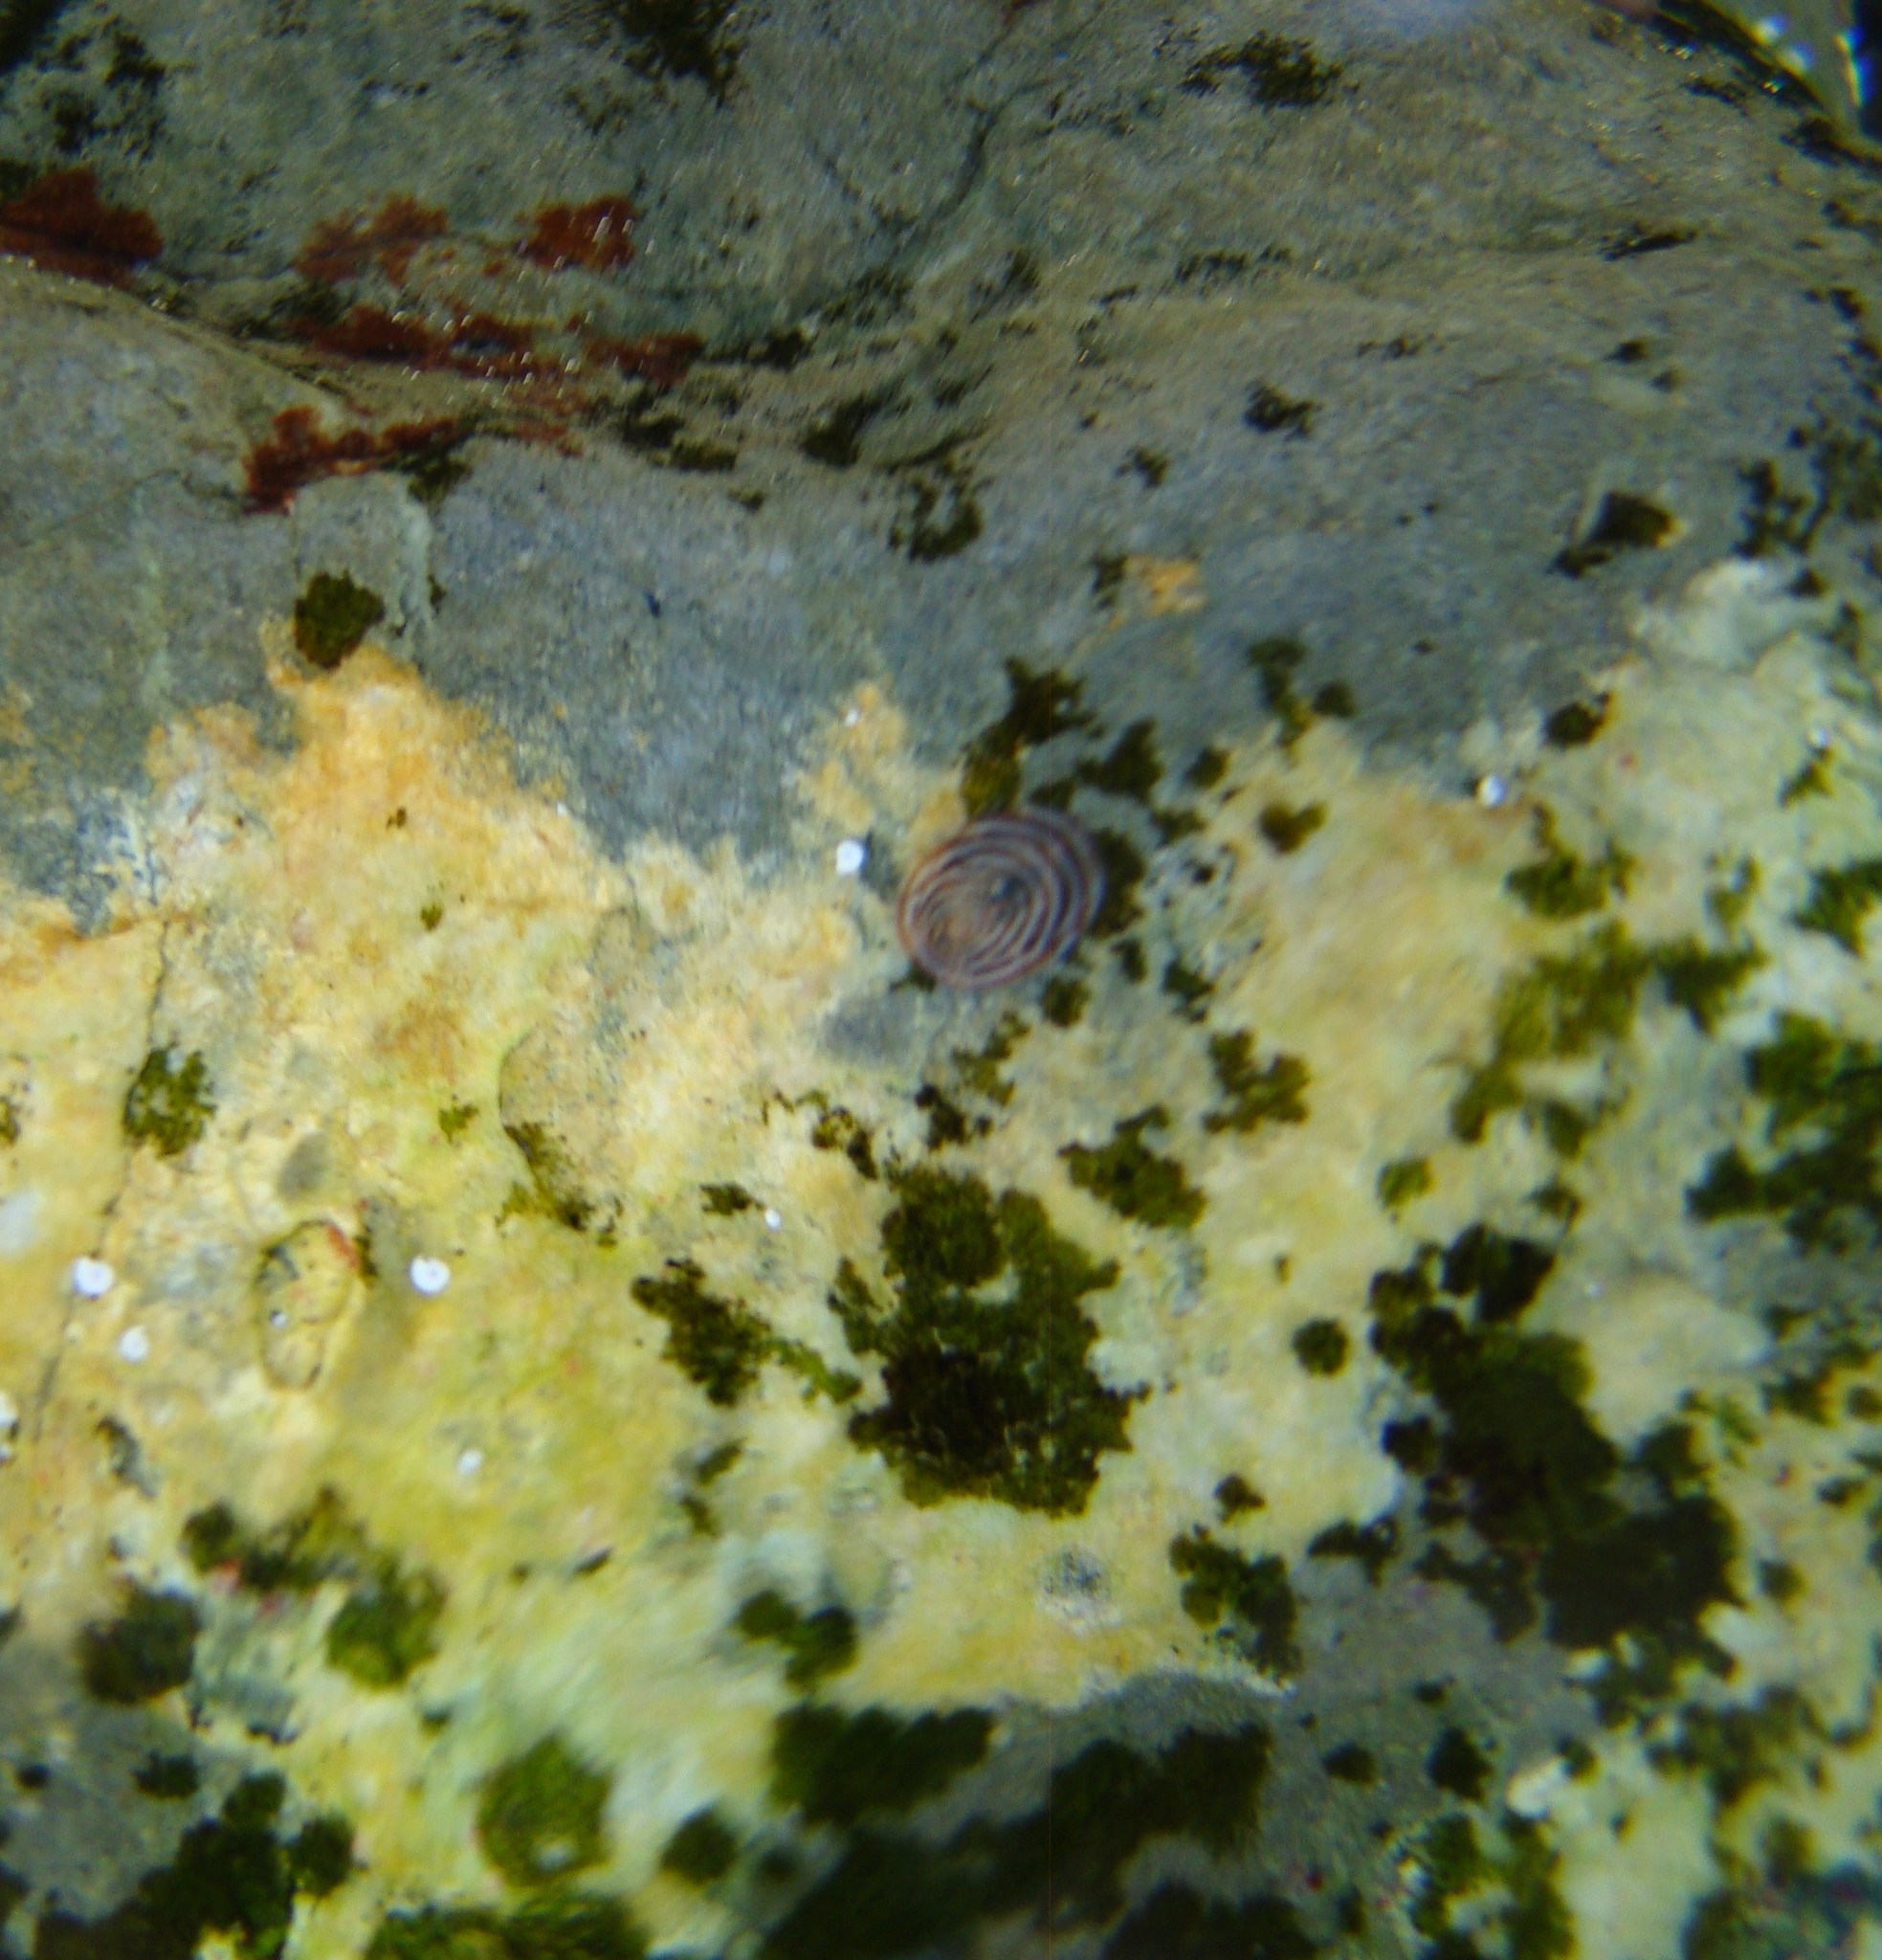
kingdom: Animalia
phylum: Mollusca
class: Gastropoda
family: Lottiidae
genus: Atalacmea
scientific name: Atalacmea fragilis
